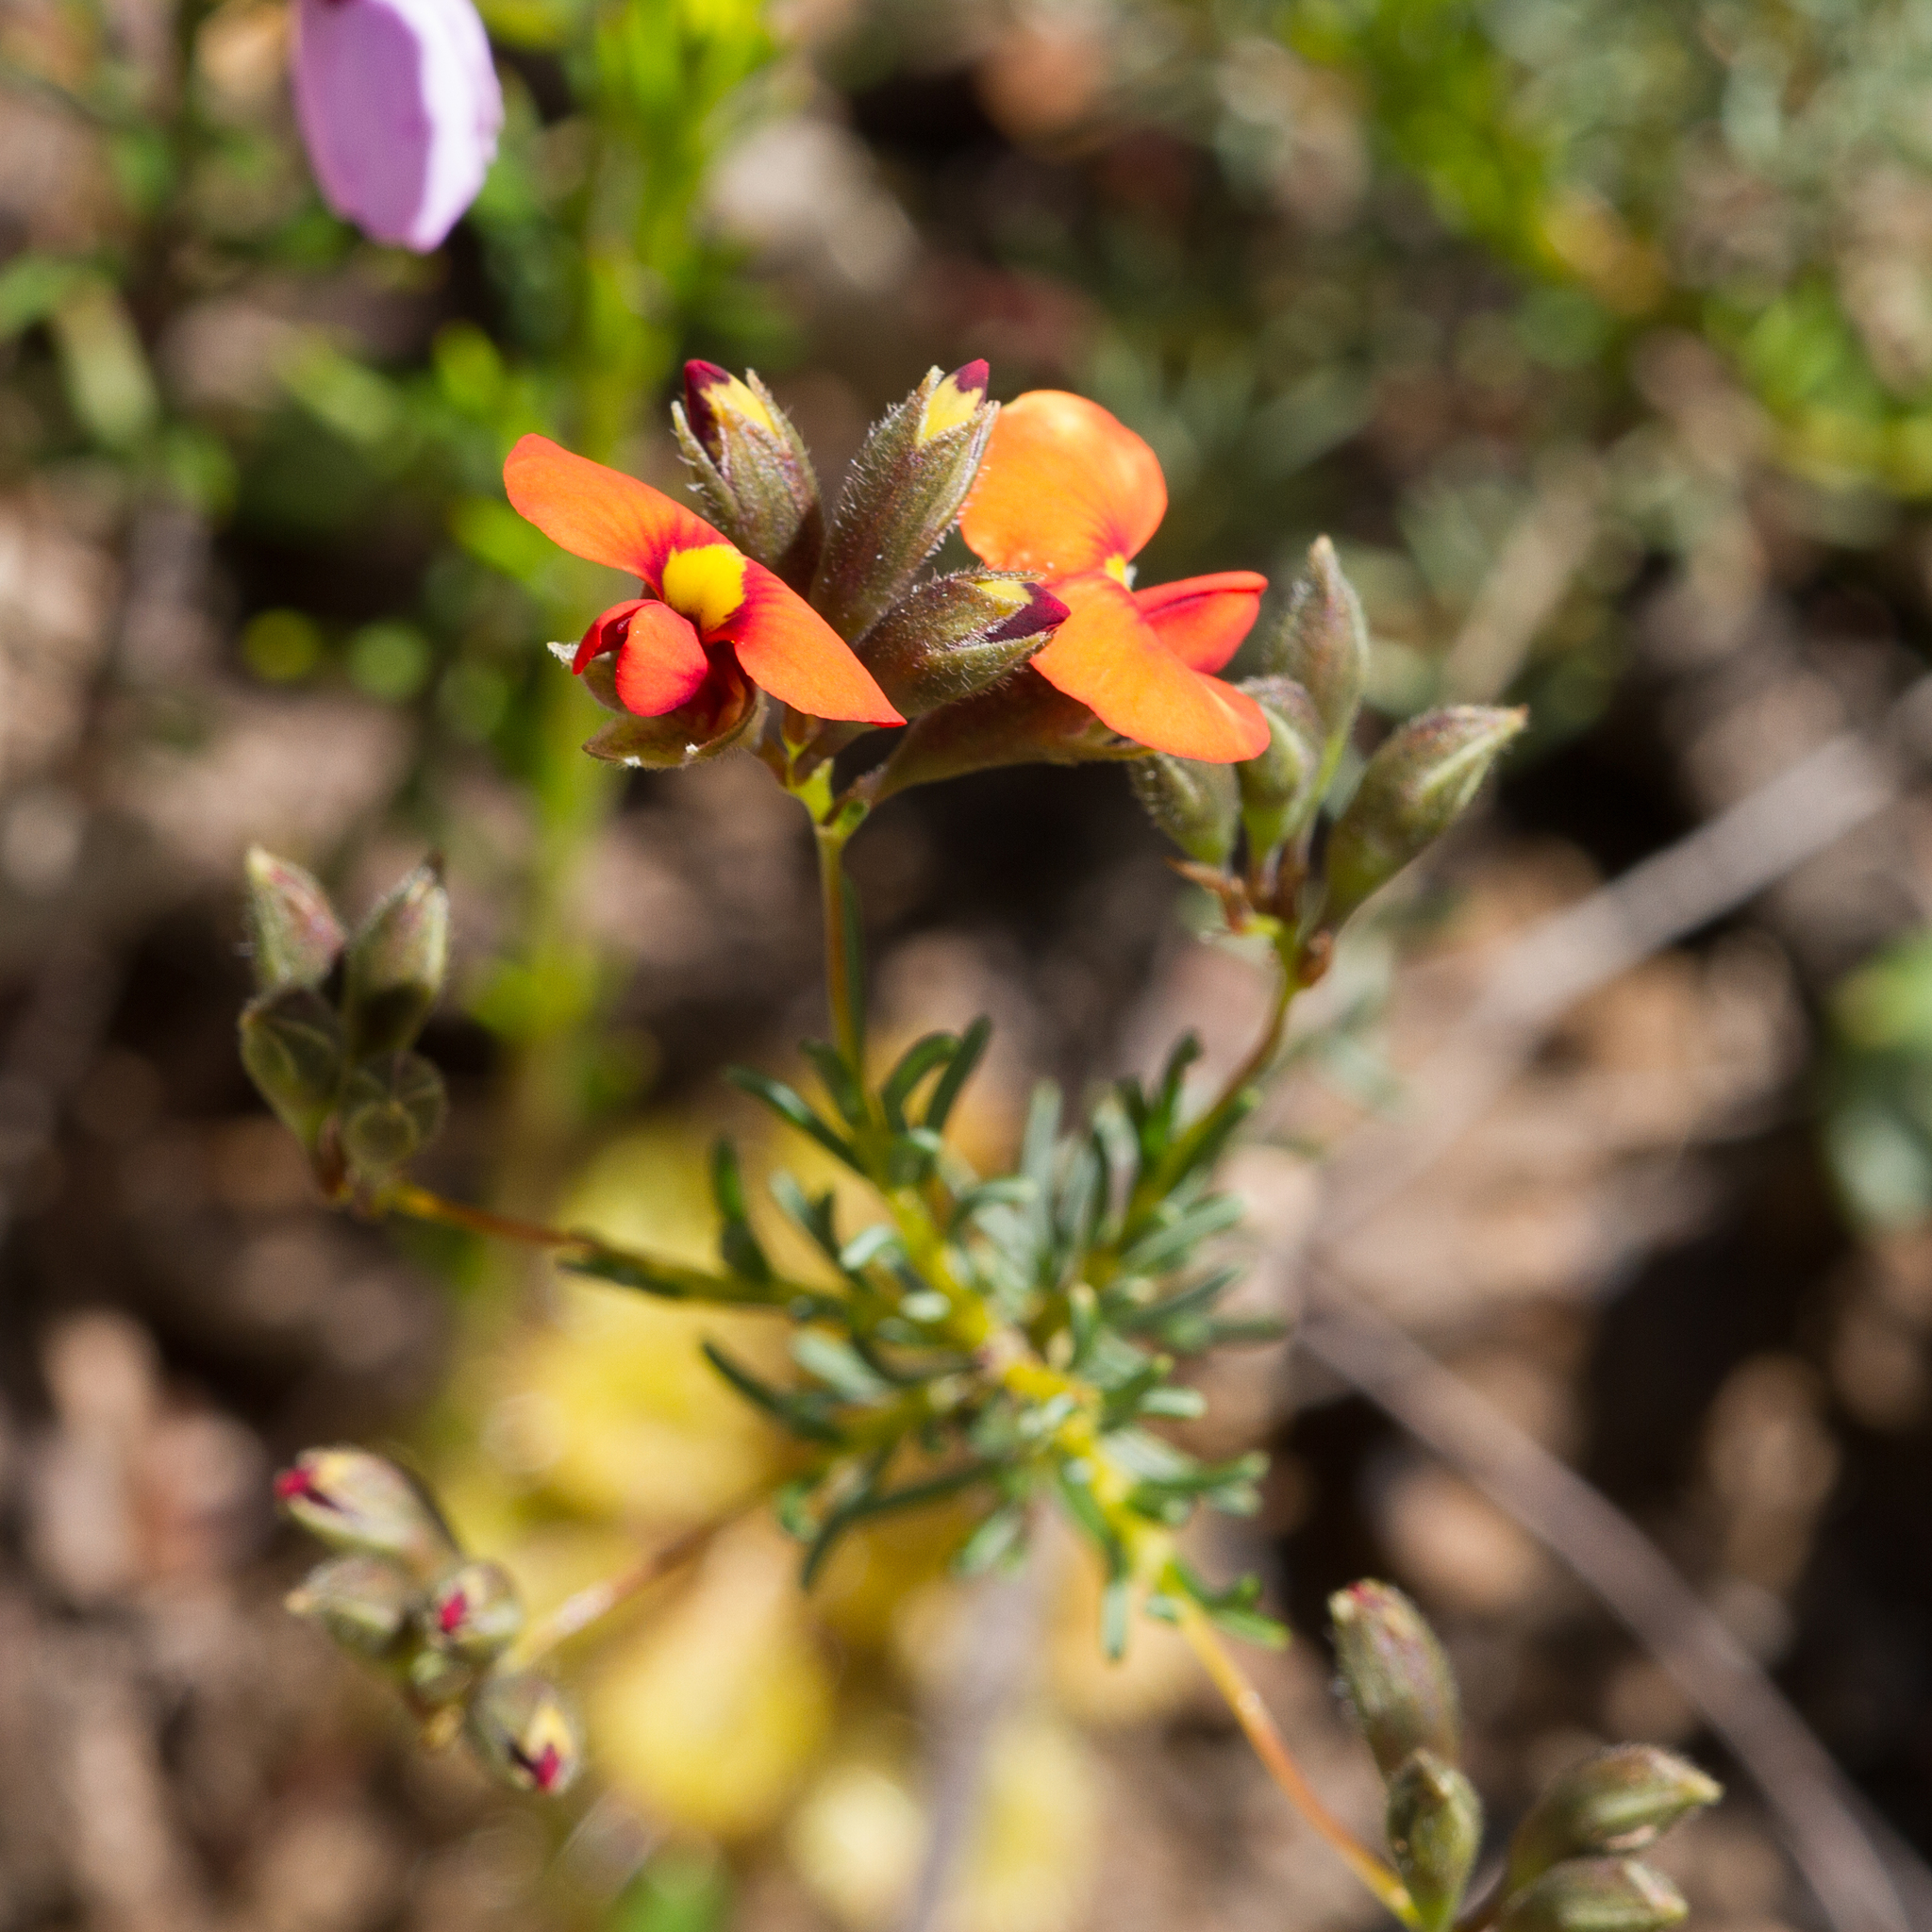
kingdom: Plantae
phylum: Tracheophyta
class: Magnoliopsida
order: Fabales
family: Fabaceae
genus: Dillwynia
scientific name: Dillwynia hispida
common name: Red parrot-pea
